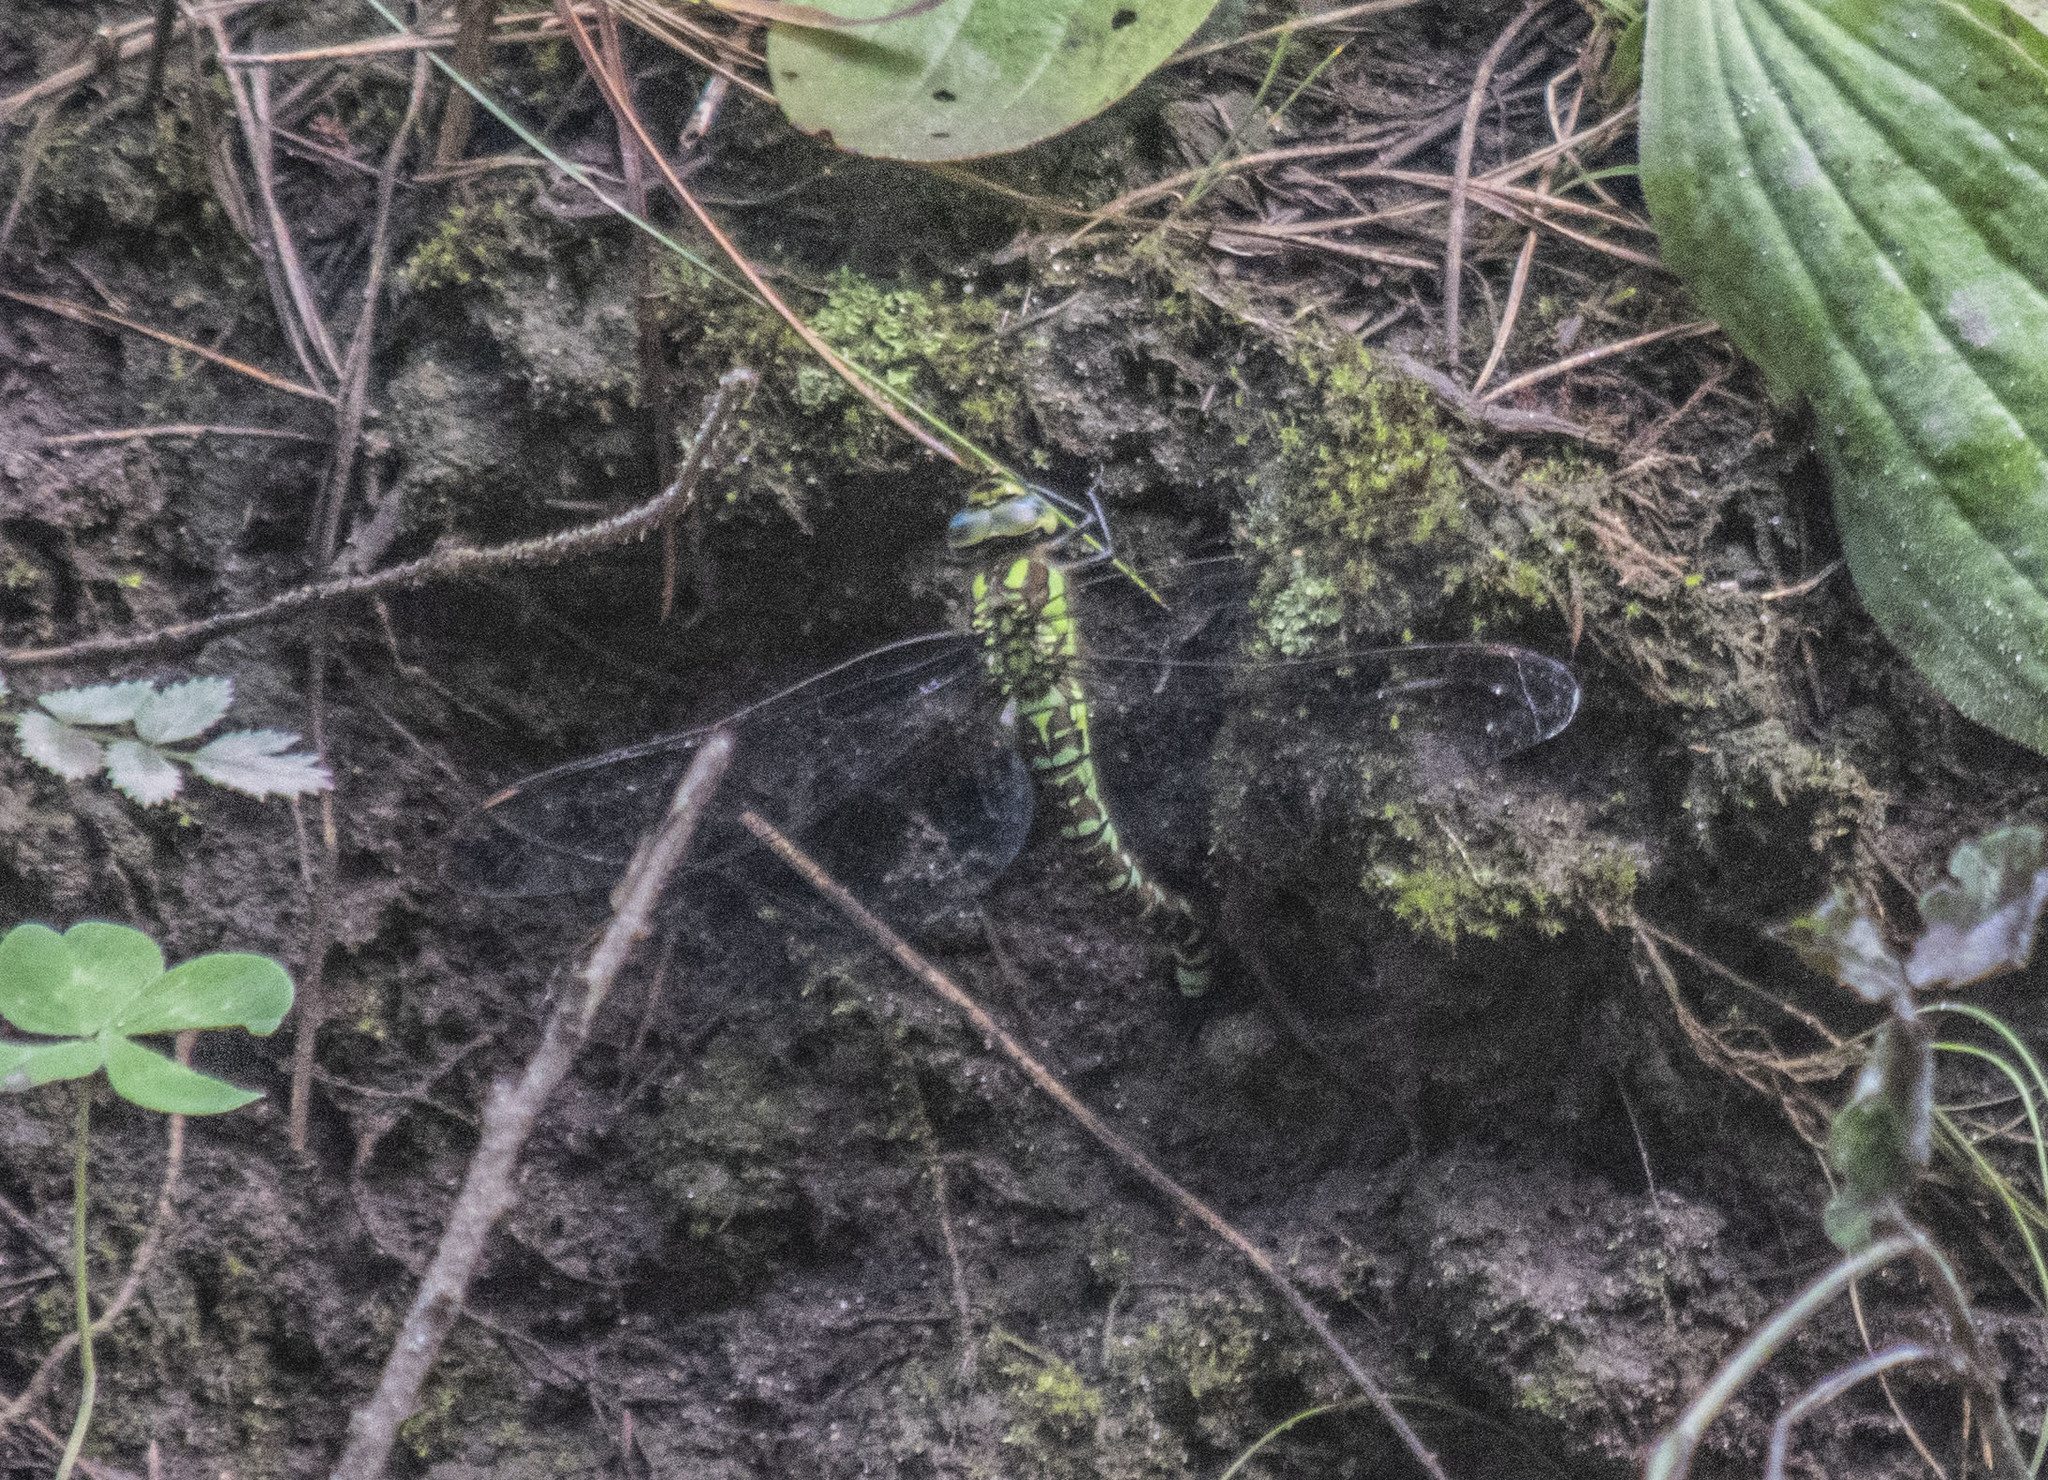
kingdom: Animalia
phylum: Arthropoda
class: Insecta
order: Odonata
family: Aeshnidae
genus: Aeshna
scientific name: Aeshna cyanea
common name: Southern hawker
